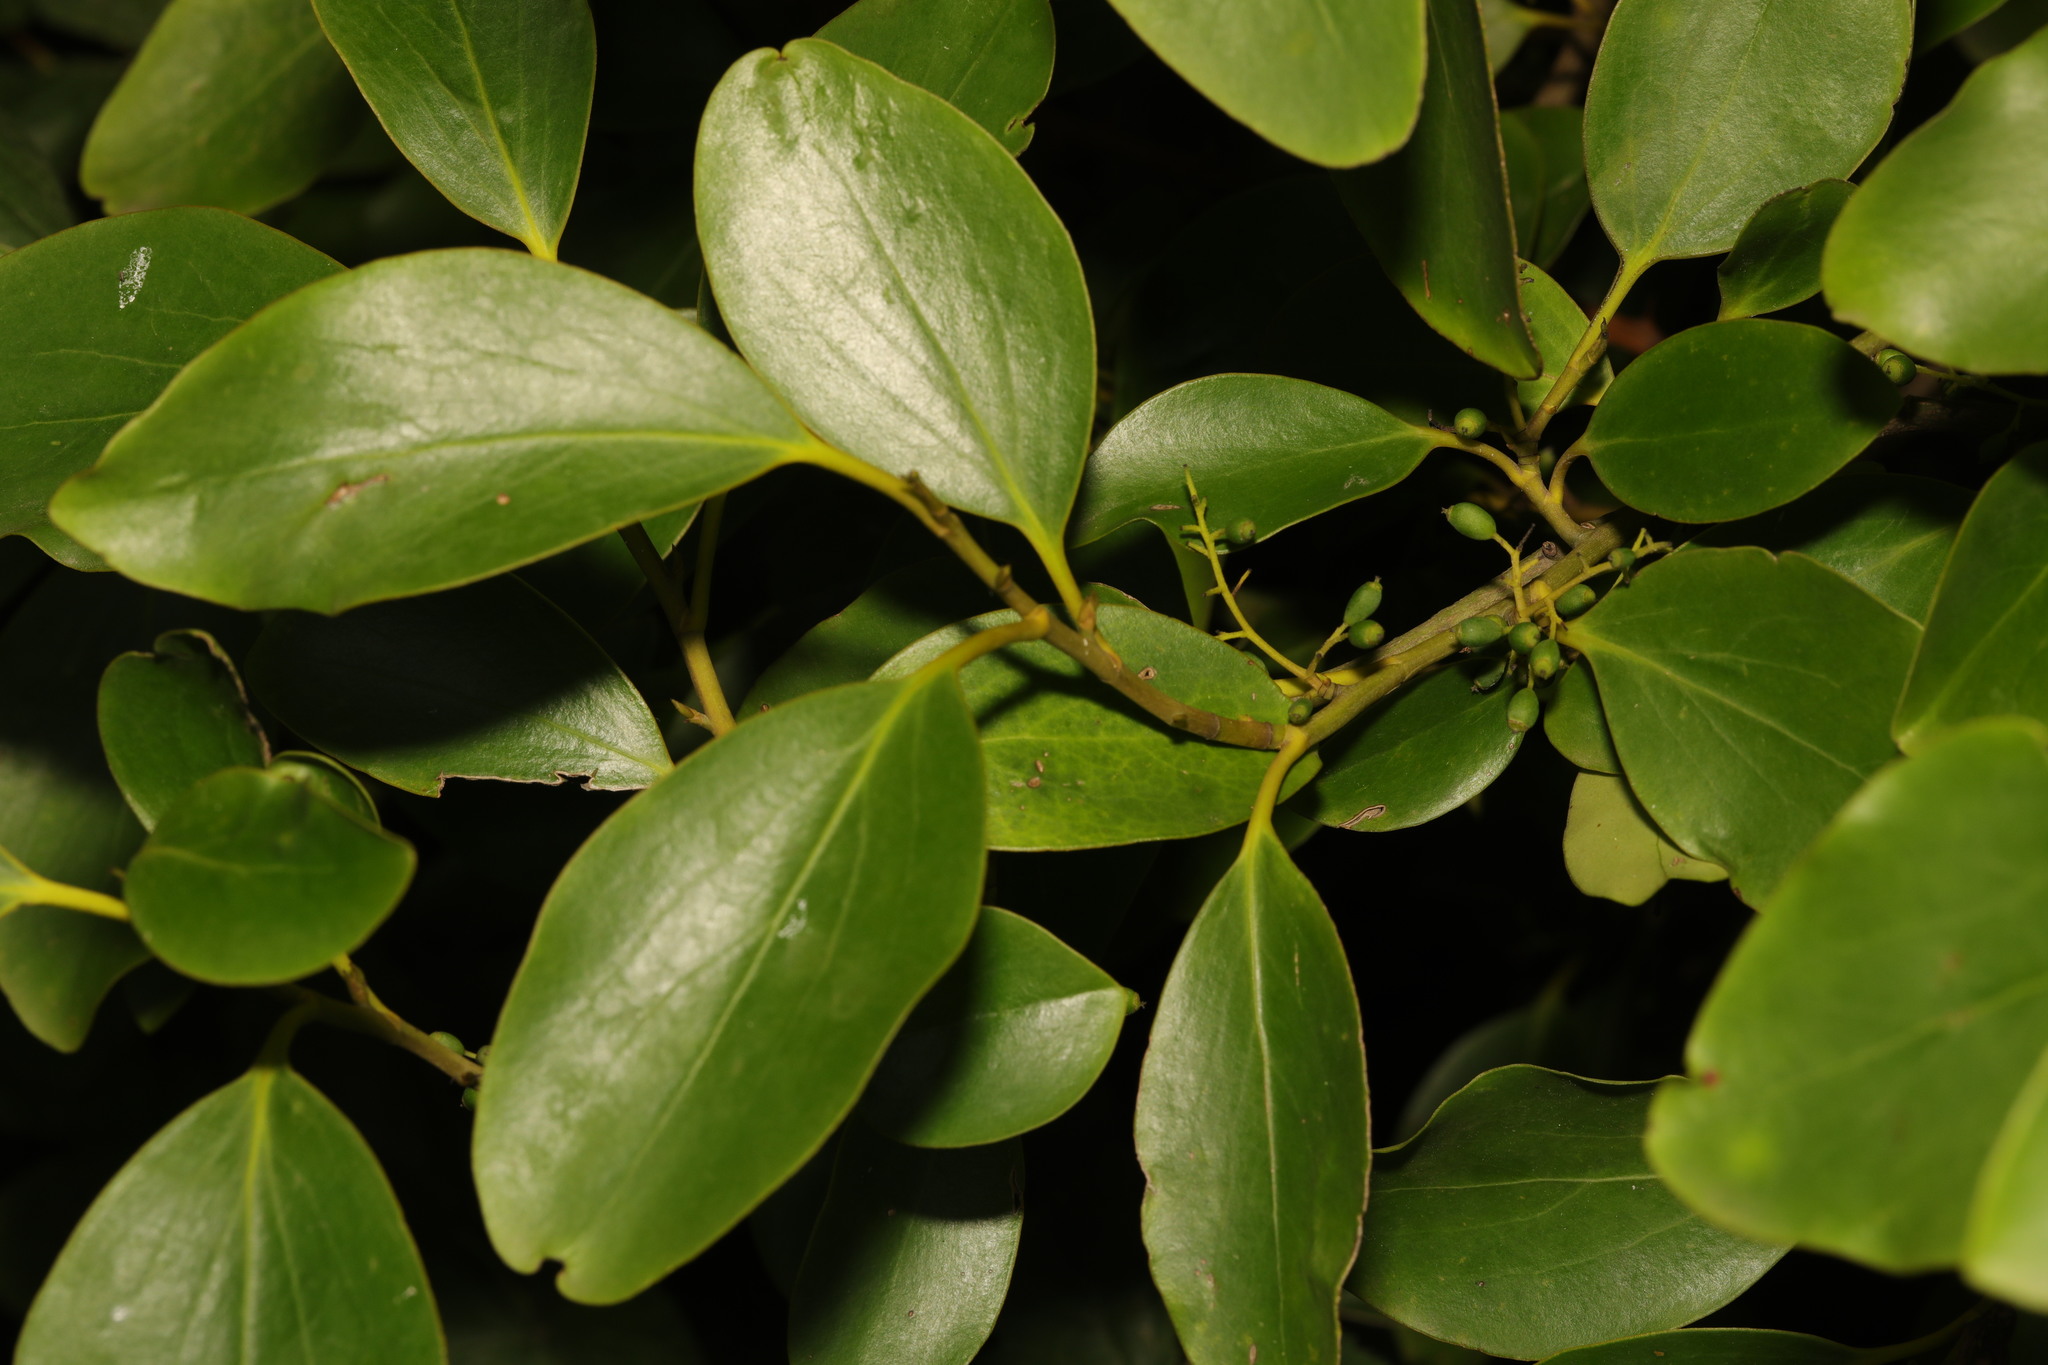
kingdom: Plantae
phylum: Tracheophyta
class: Magnoliopsida
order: Apiales
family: Griseliniaceae
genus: Griselinia
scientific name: Griselinia littoralis
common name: New zealand broadleaf
